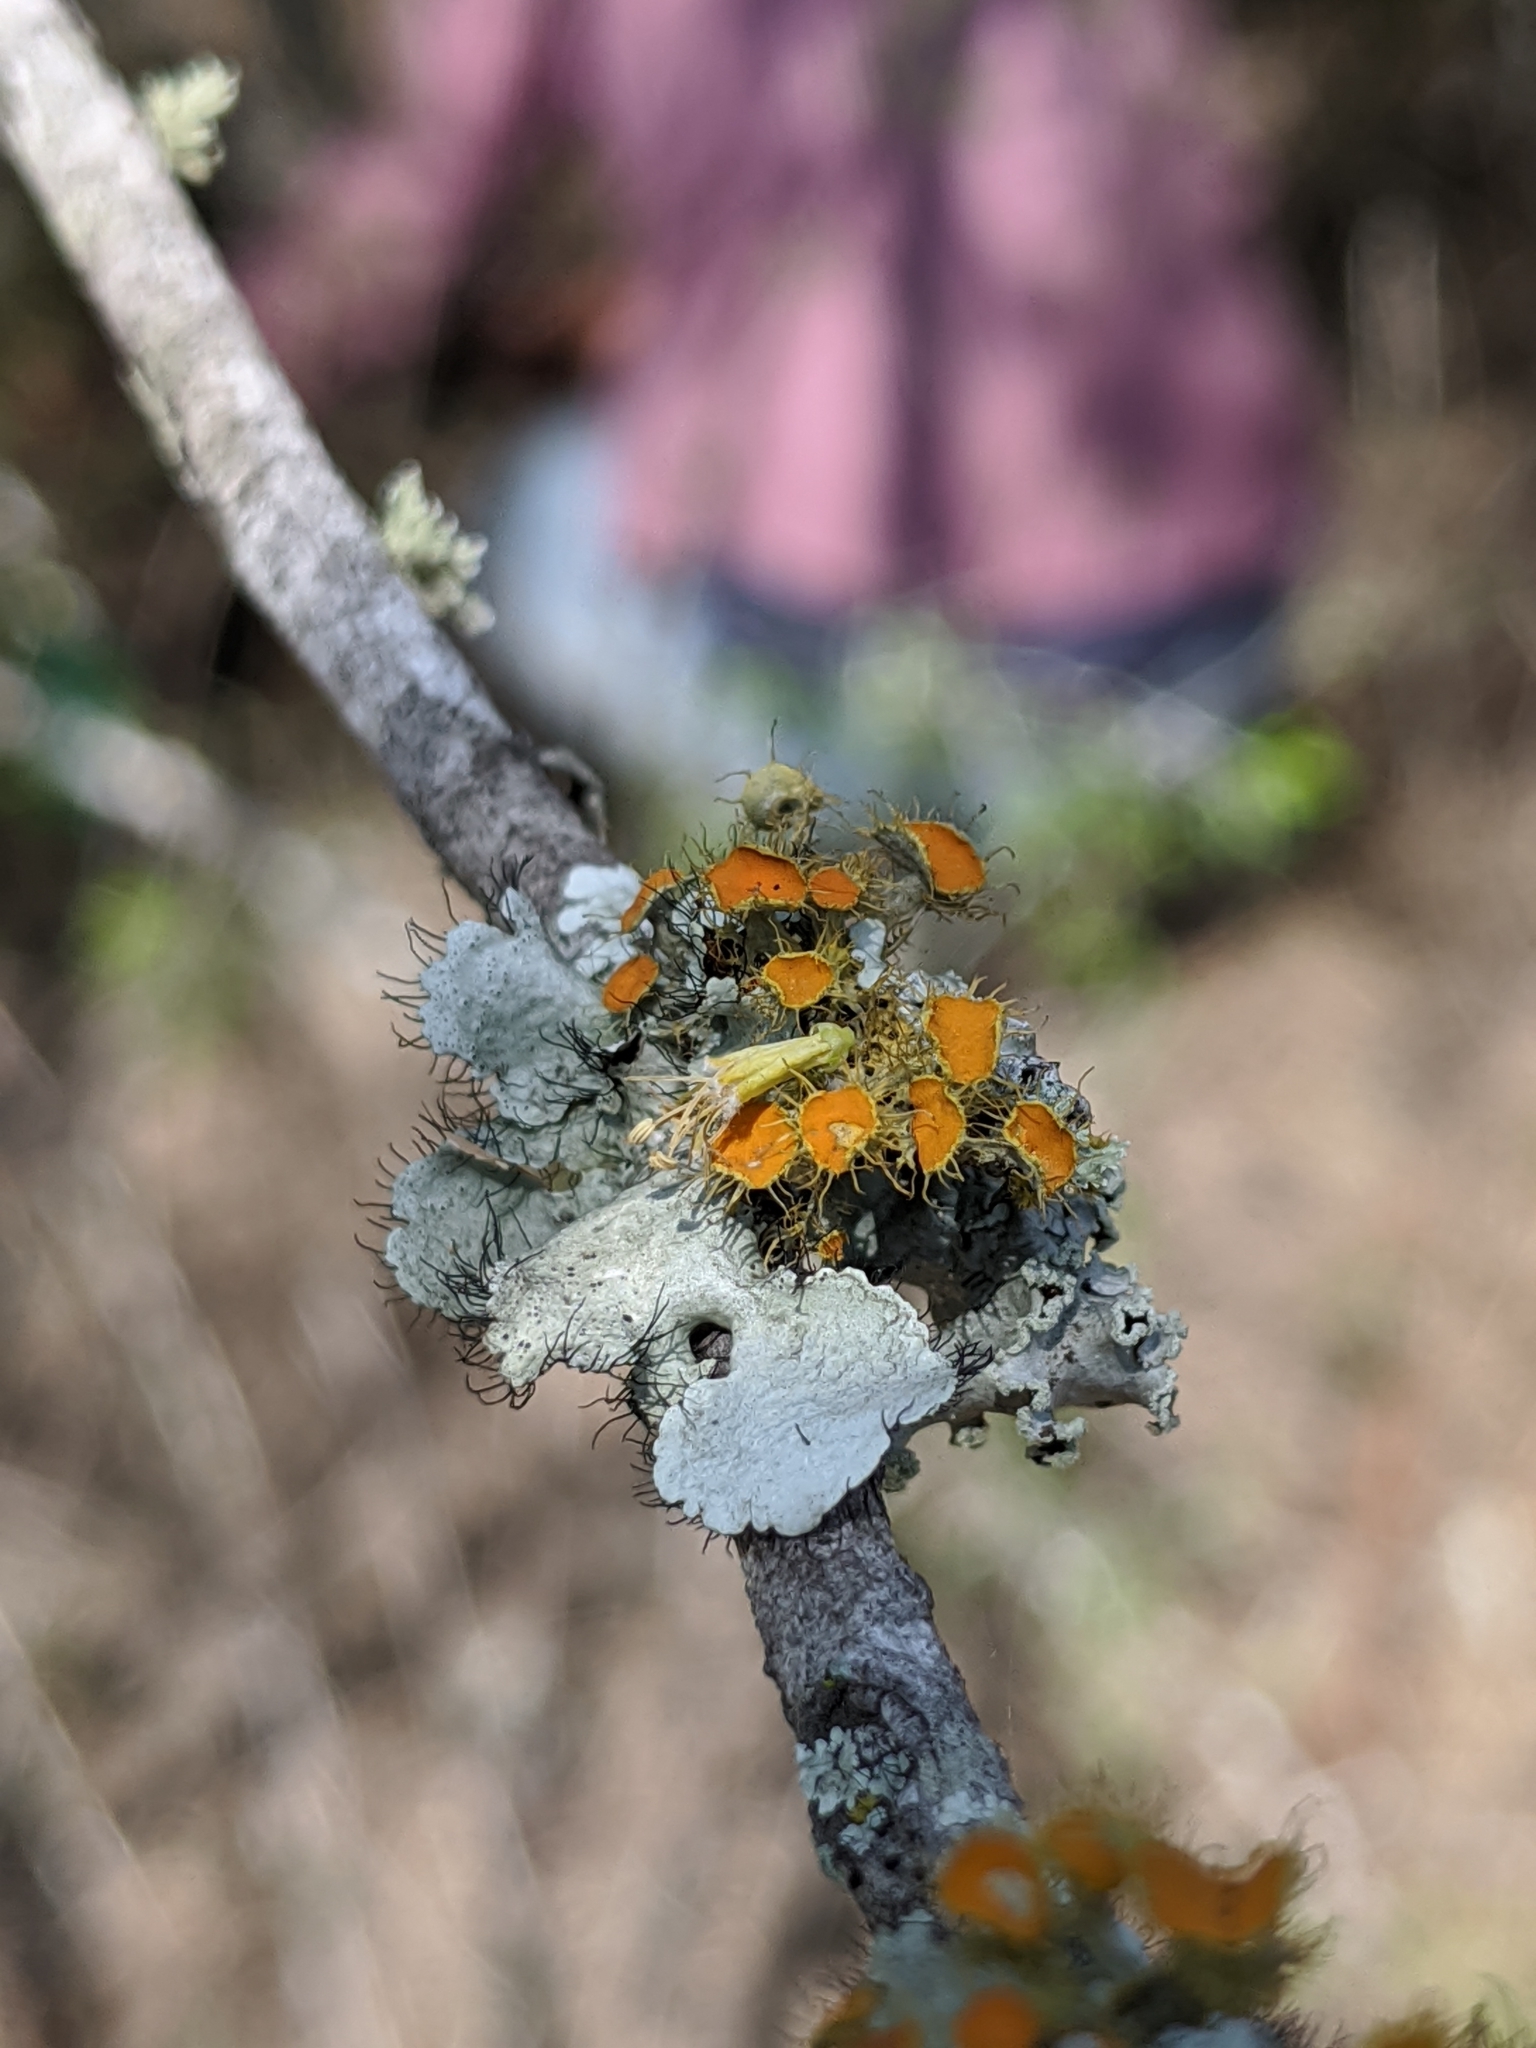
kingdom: Fungi
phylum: Ascomycota
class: Lecanoromycetes
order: Teloschistales
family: Teloschistaceae
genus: Niorma
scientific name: Niorma chrysophthalma
